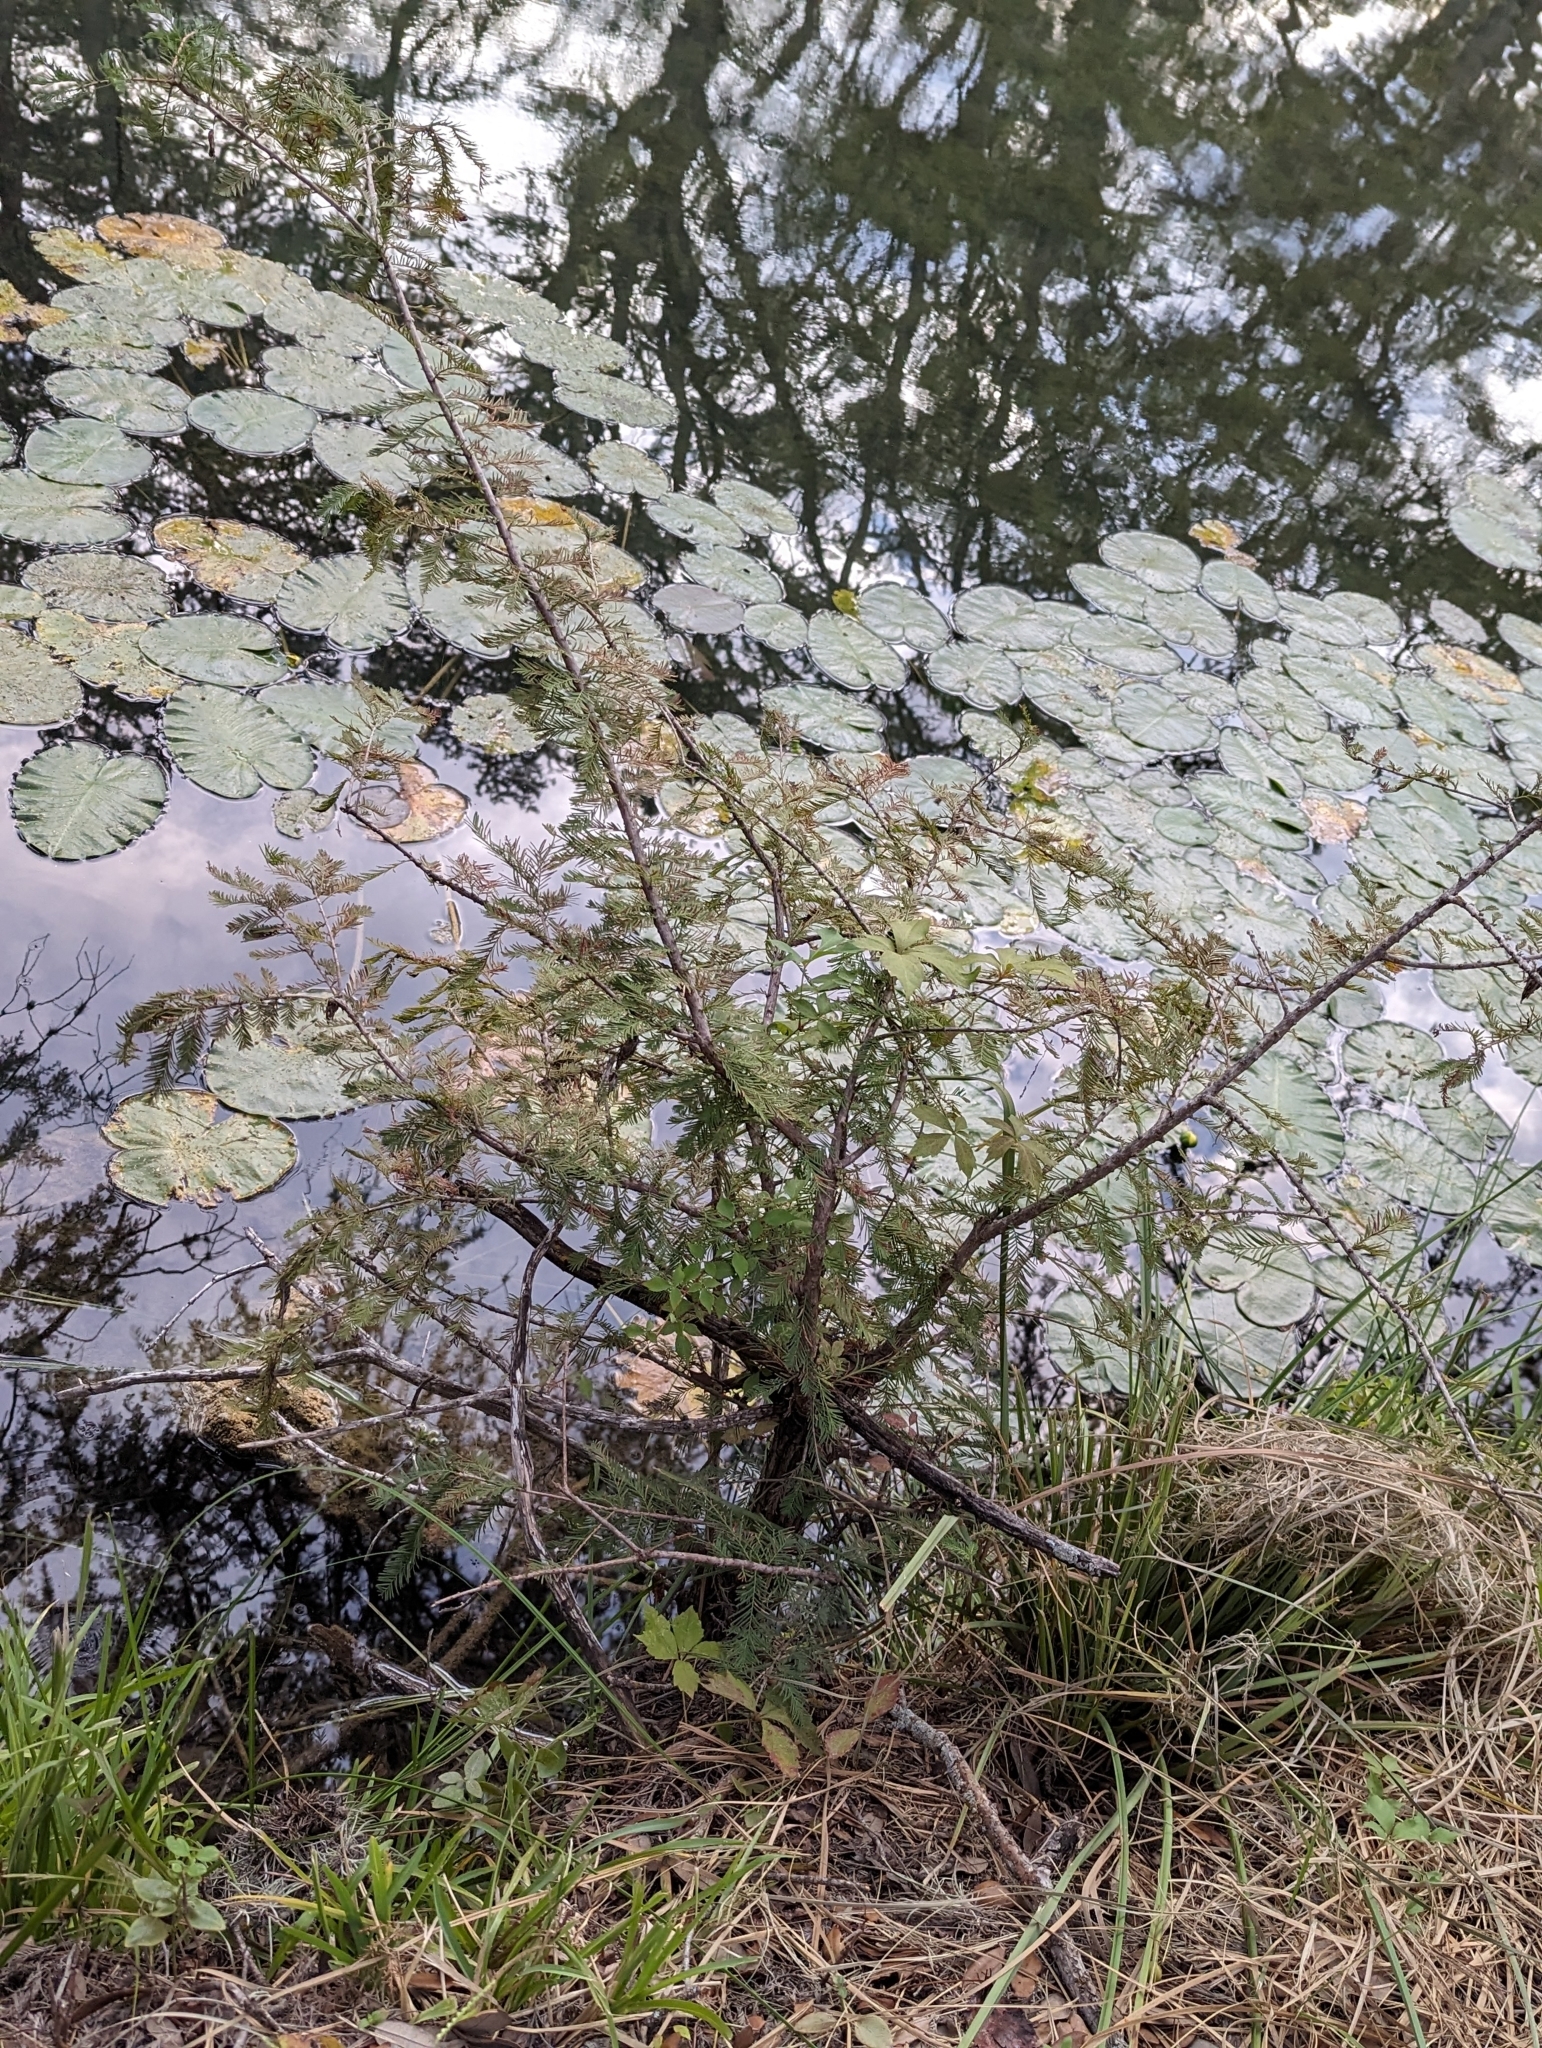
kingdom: Plantae
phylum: Tracheophyta
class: Pinopsida
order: Pinales
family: Cupressaceae
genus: Taxodium
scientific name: Taxodium distichum
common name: Bald cypress
